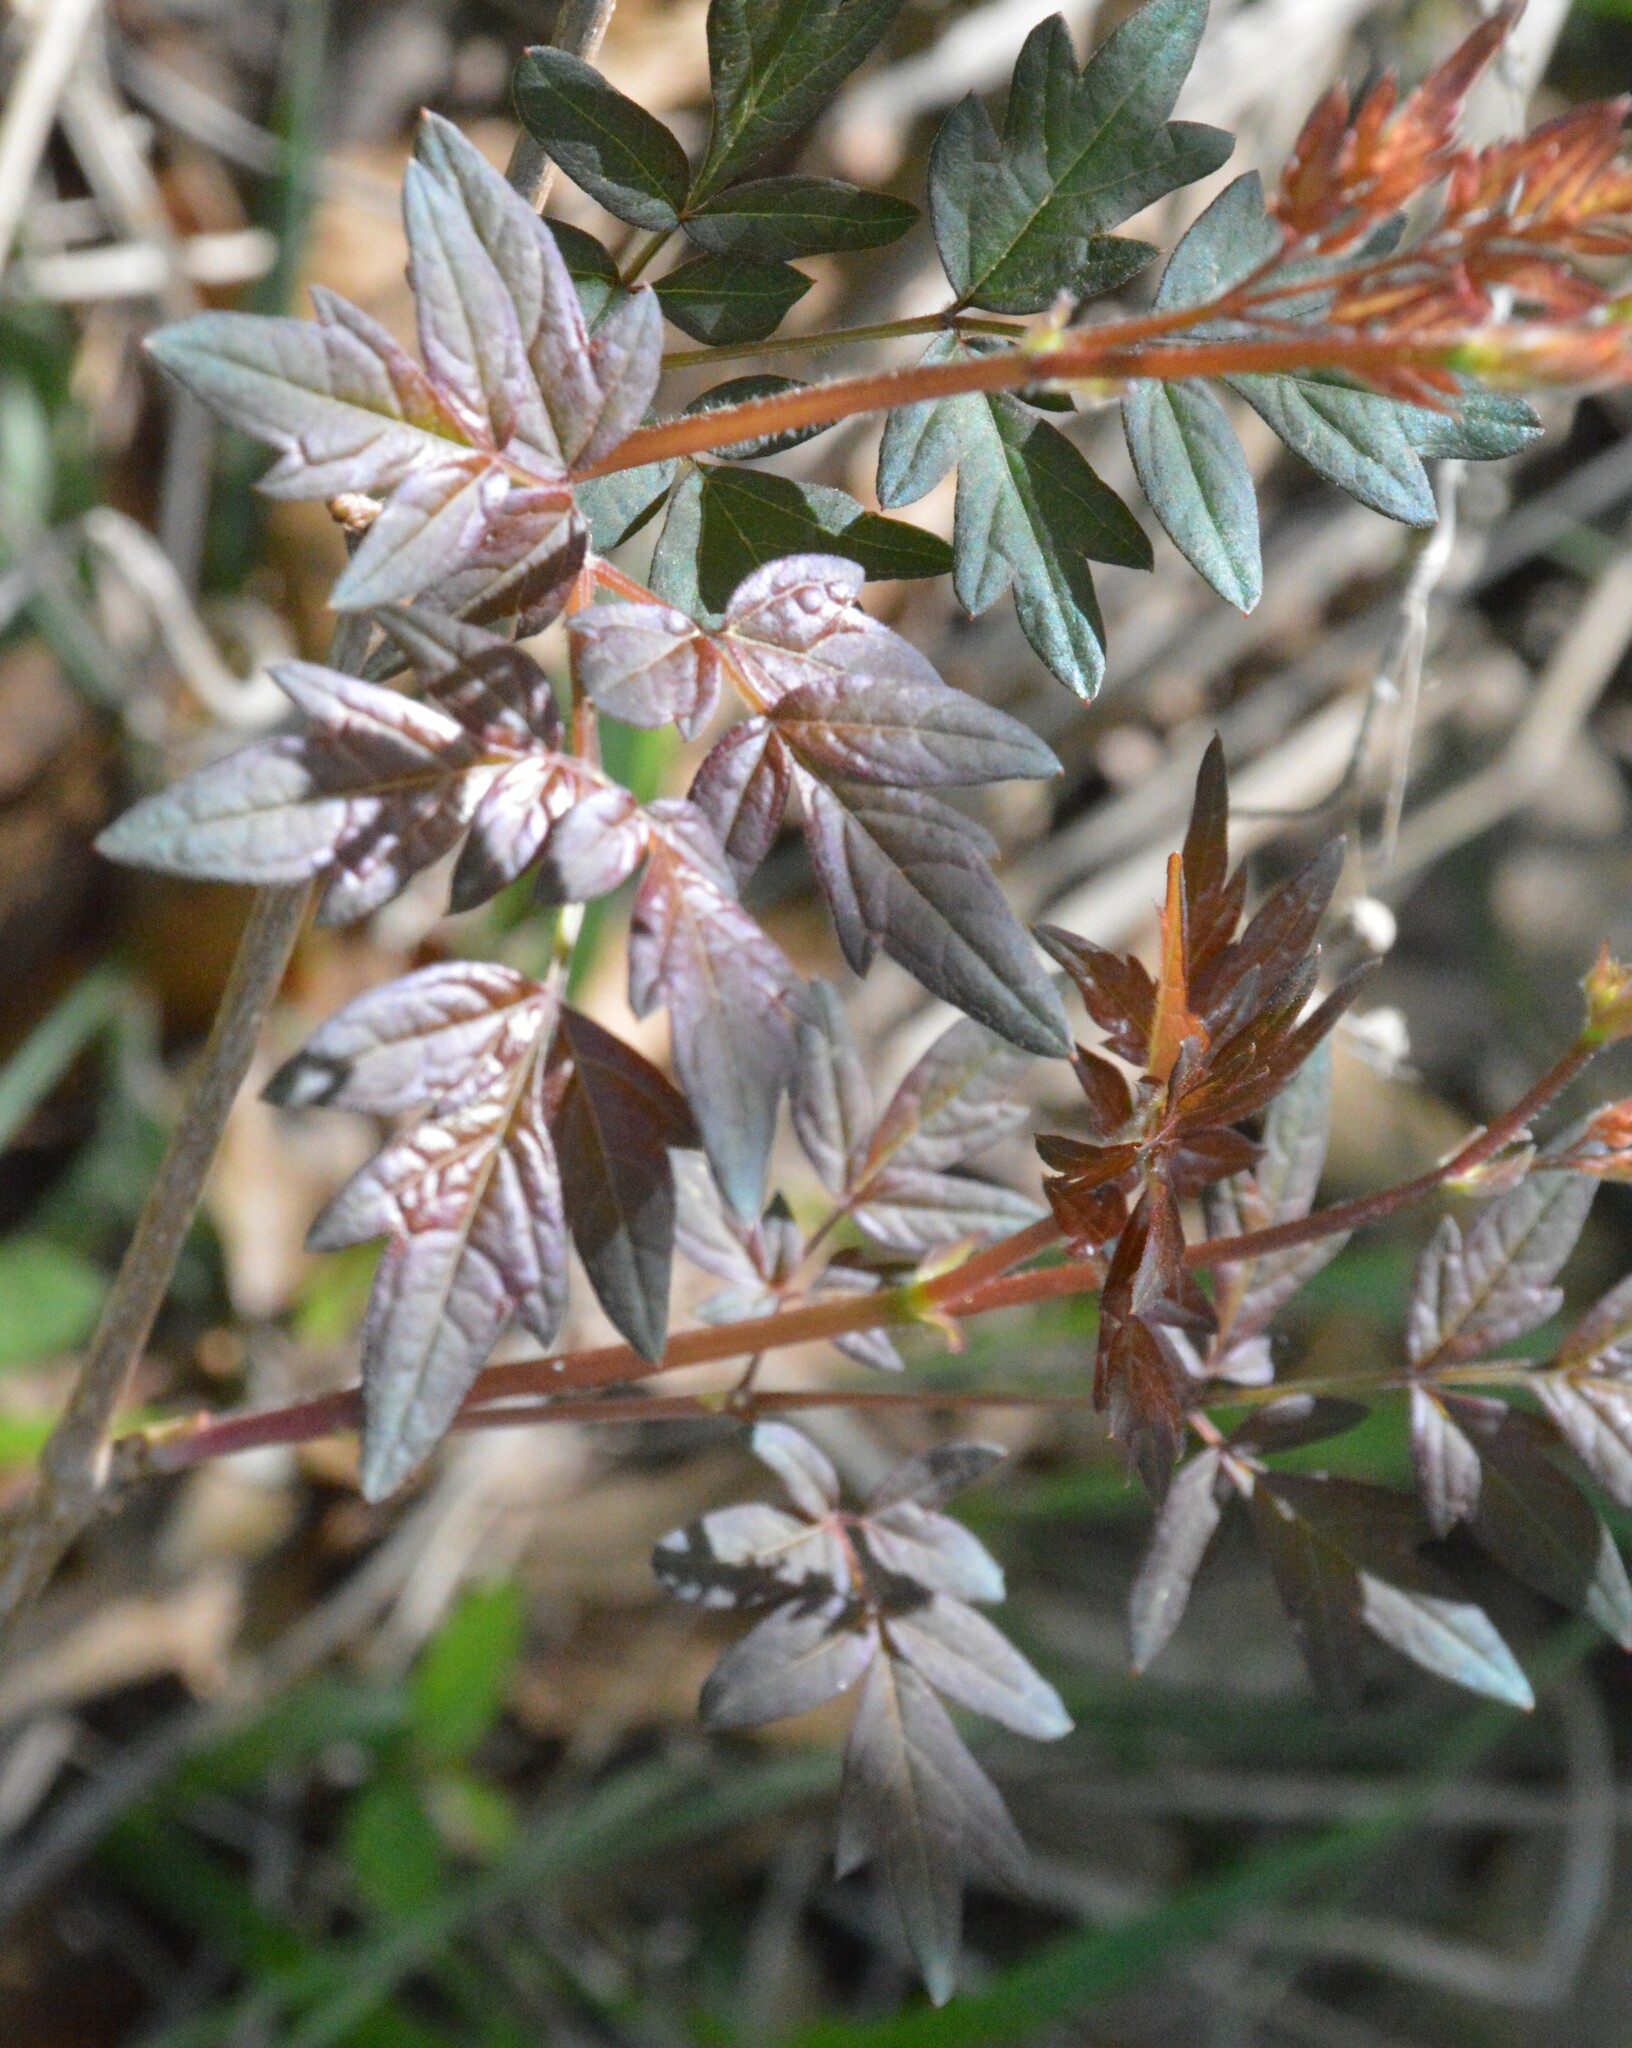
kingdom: Plantae
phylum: Tracheophyta
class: Magnoliopsida
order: Vitales
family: Vitaceae
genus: Nekemias
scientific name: Nekemias arborea
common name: Peppervine
